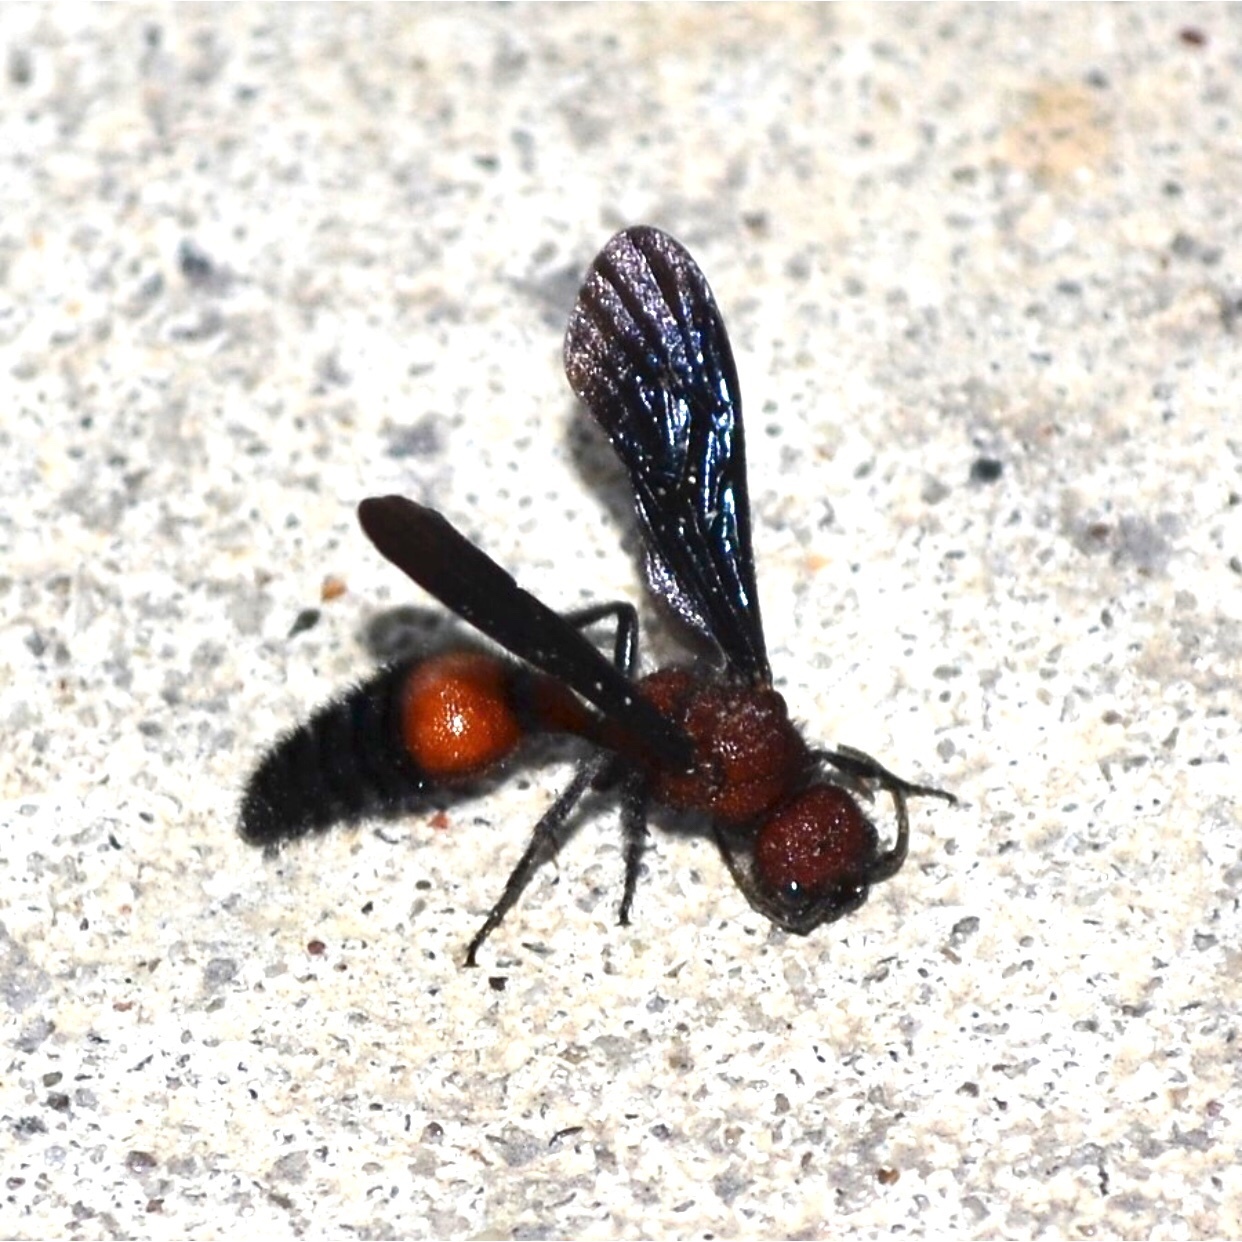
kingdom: Animalia
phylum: Arthropoda
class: Insecta
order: Hymenoptera
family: Mutillidae
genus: Sphaeropthalma
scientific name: Sphaeropthalma
